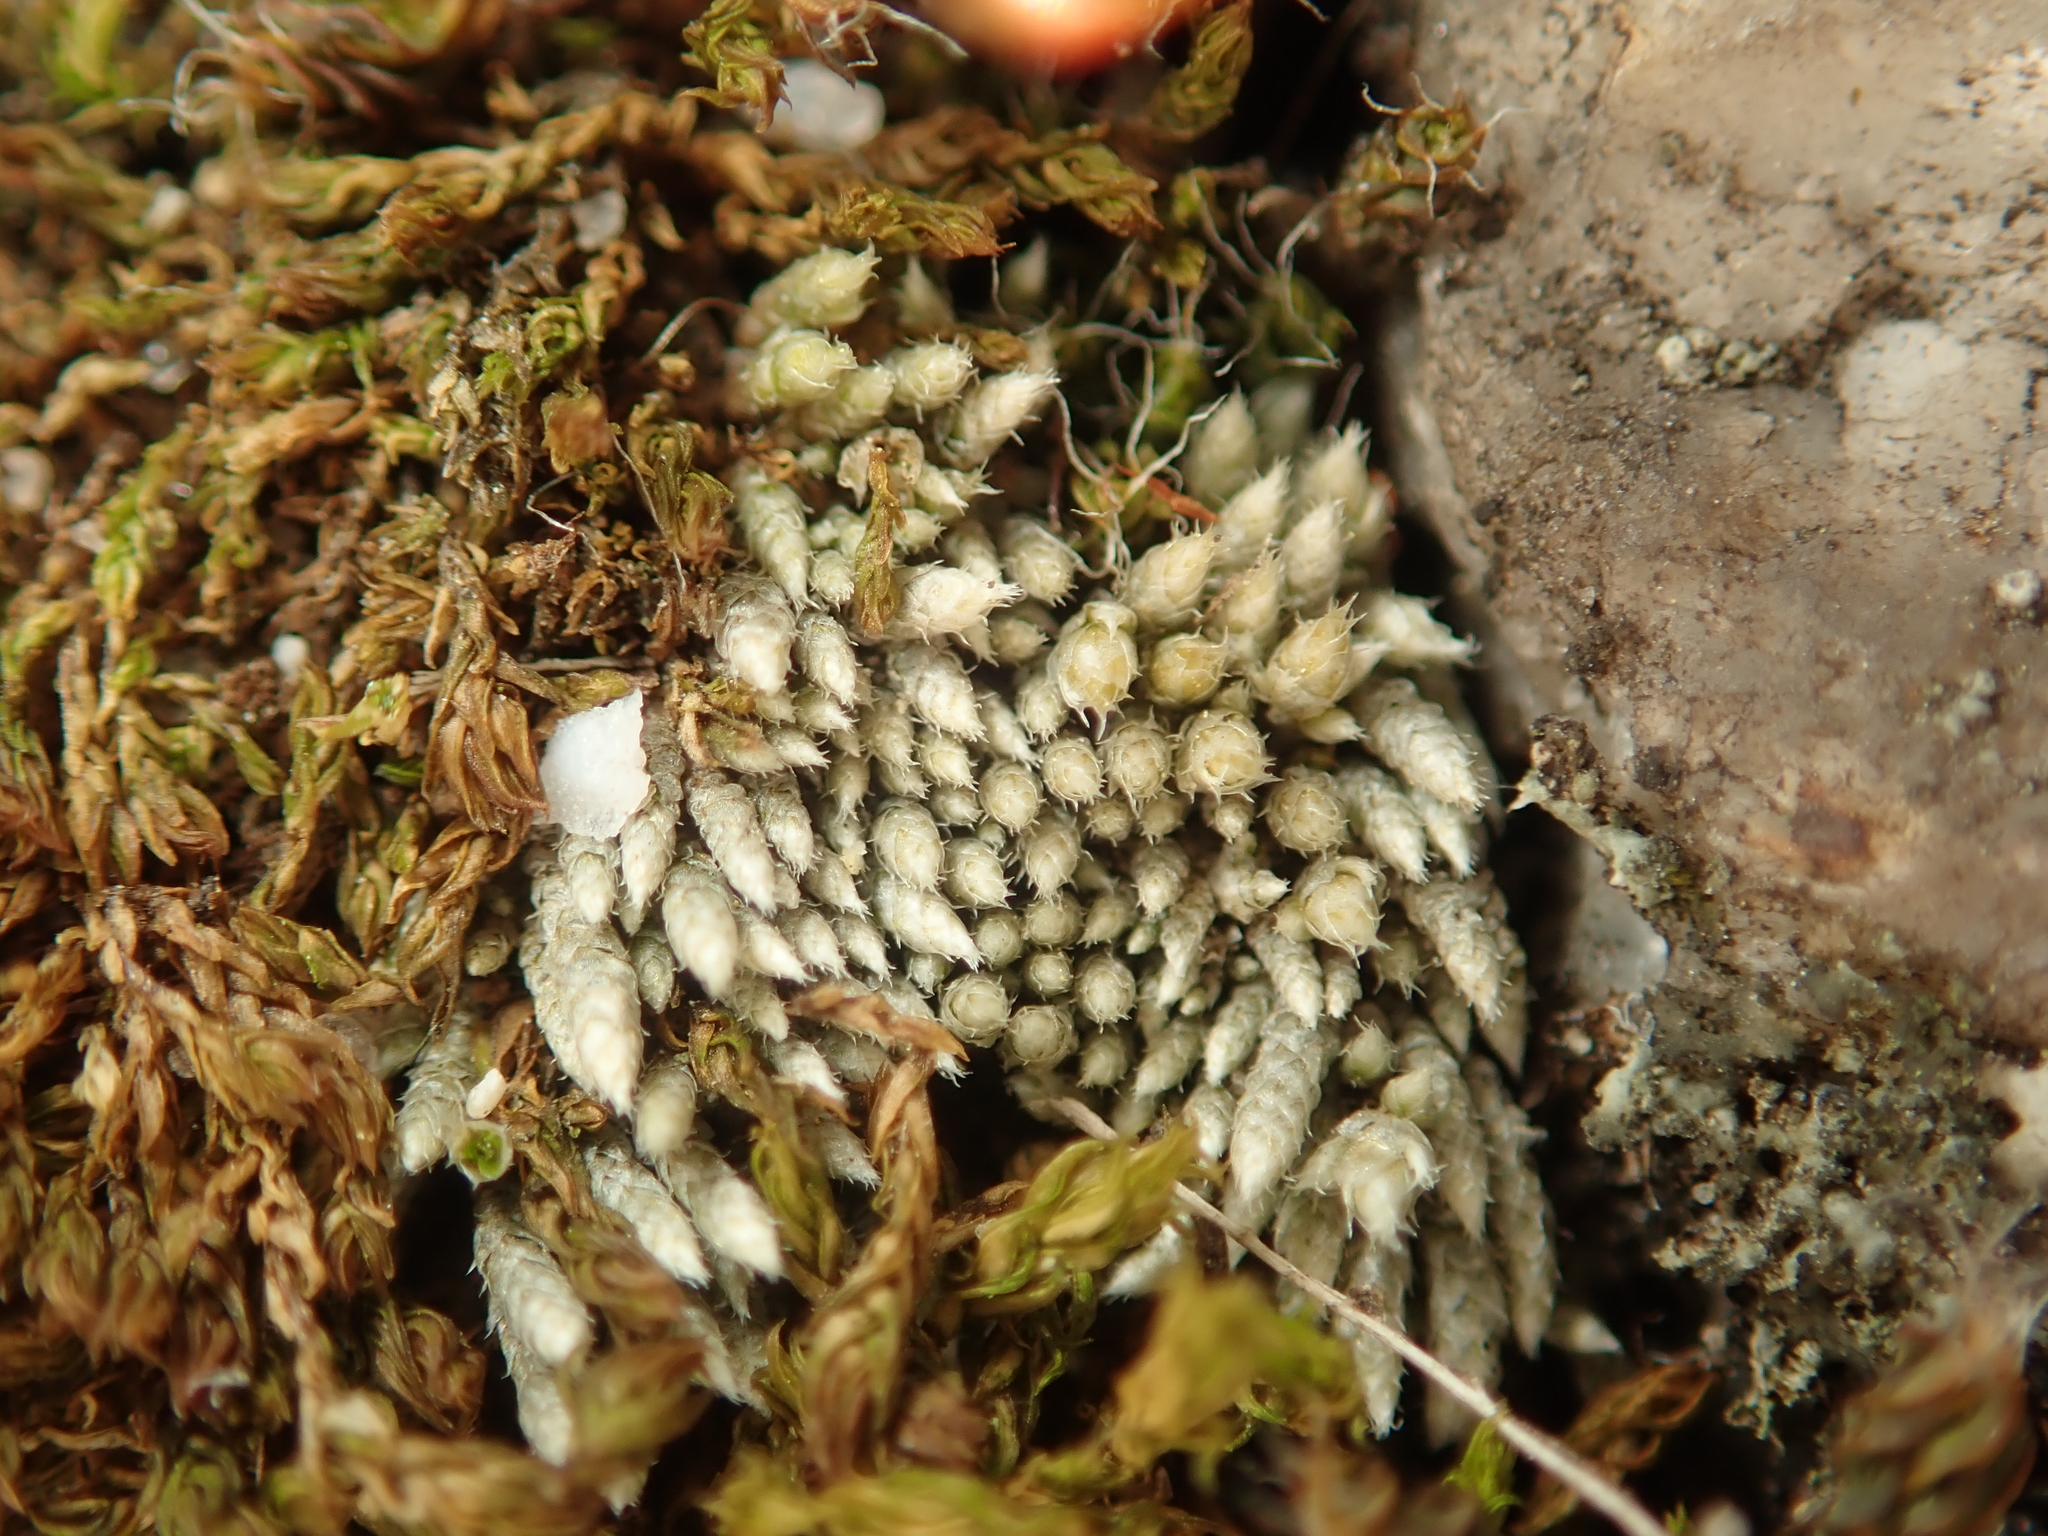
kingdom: Plantae
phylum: Bryophyta
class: Bryopsida
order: Bryales
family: Bryaceae
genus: Bryum
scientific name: Bryum argenteum
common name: Silver-moss
